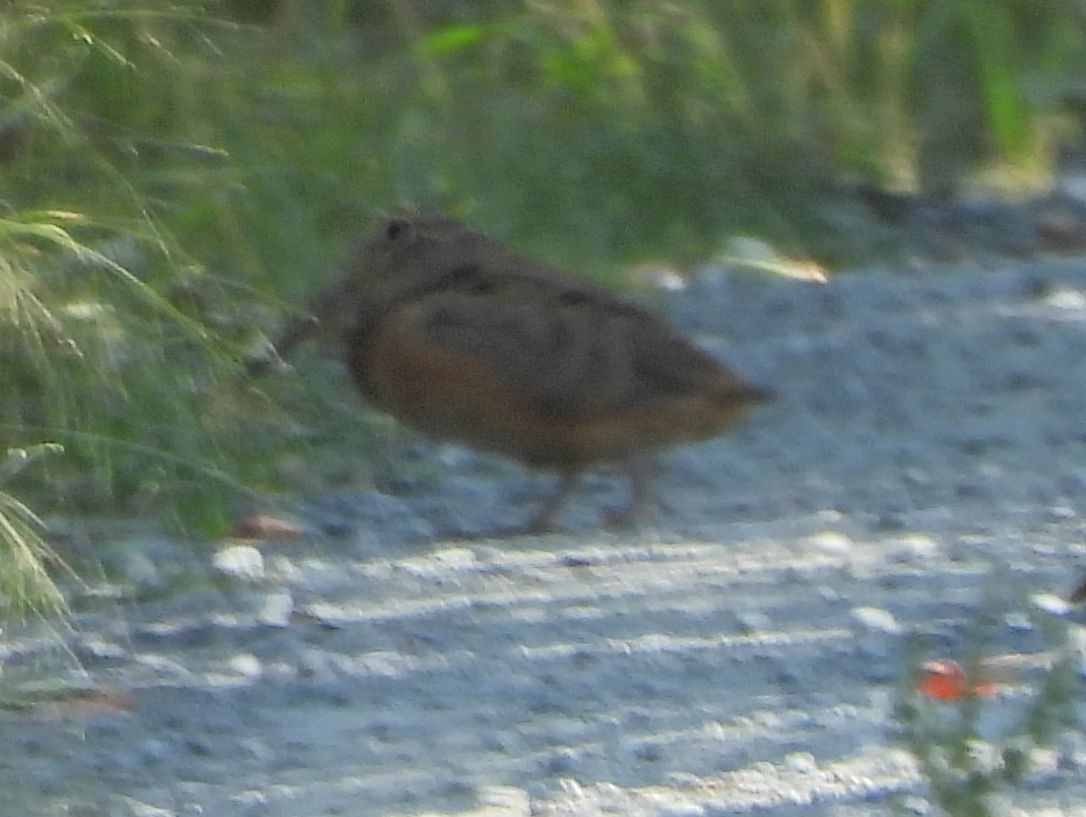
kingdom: Animalia
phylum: Chordata
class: Aves
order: Charadriiformes
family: Scolopacidae
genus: Scolopax
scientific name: Scolopax minor
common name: American woodcock
